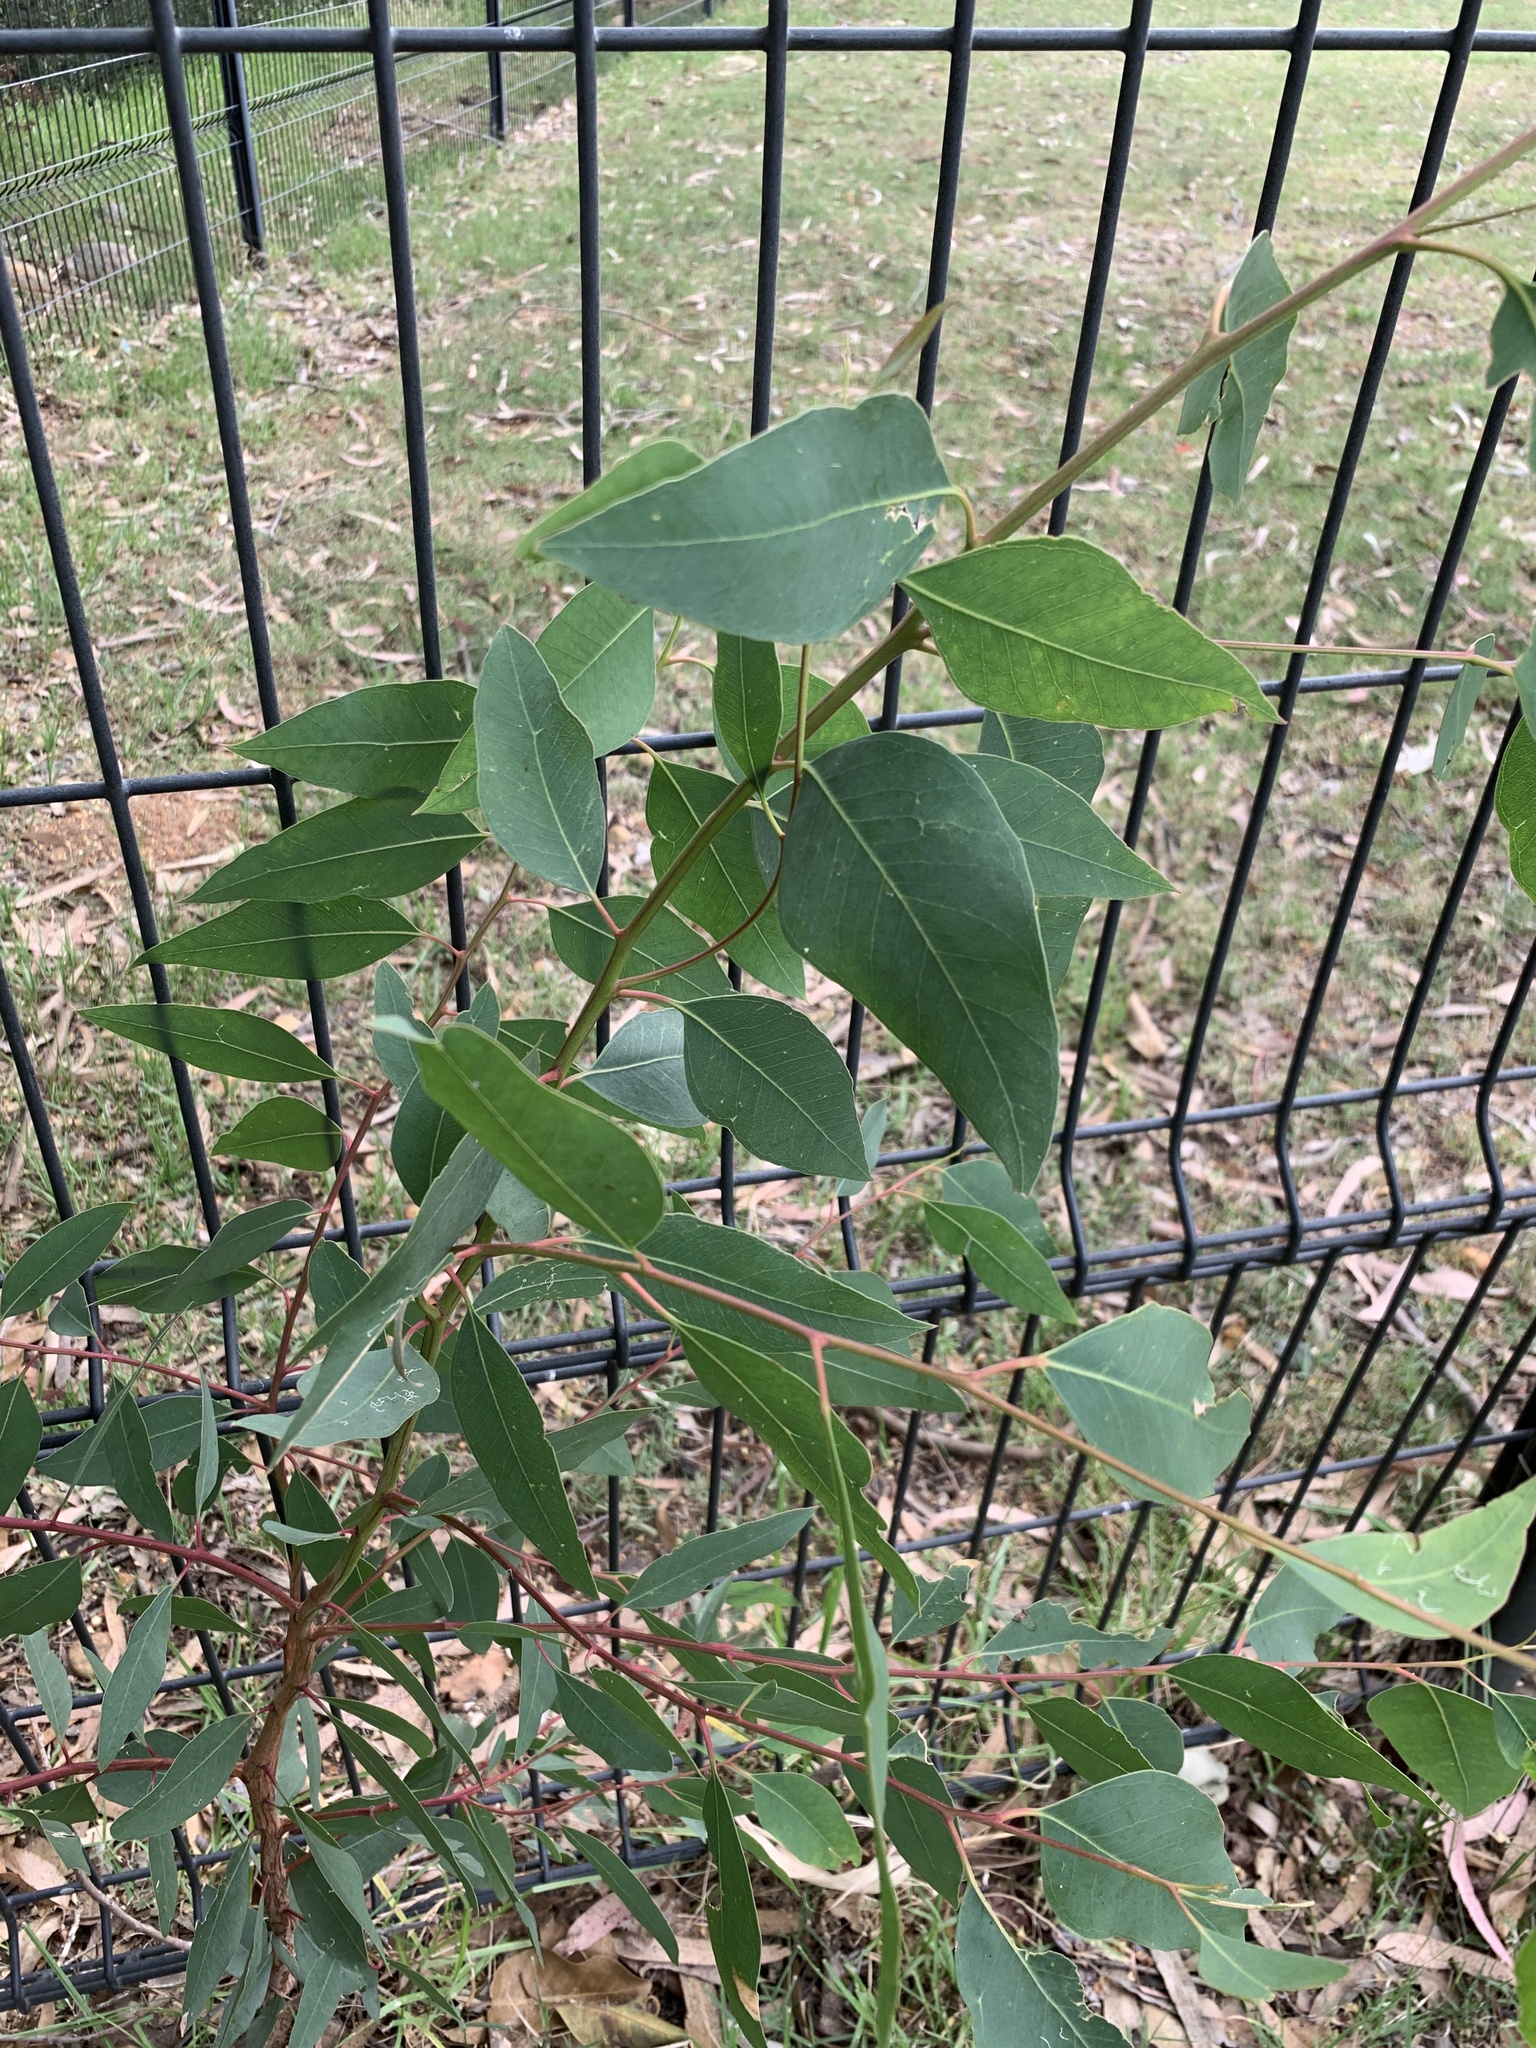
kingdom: Plantae
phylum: Tracheophyta
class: Magnoliopsida
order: Myrtales
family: Myrtaceae
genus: Eucalyptus
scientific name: Eucalyptus camaldulensis
